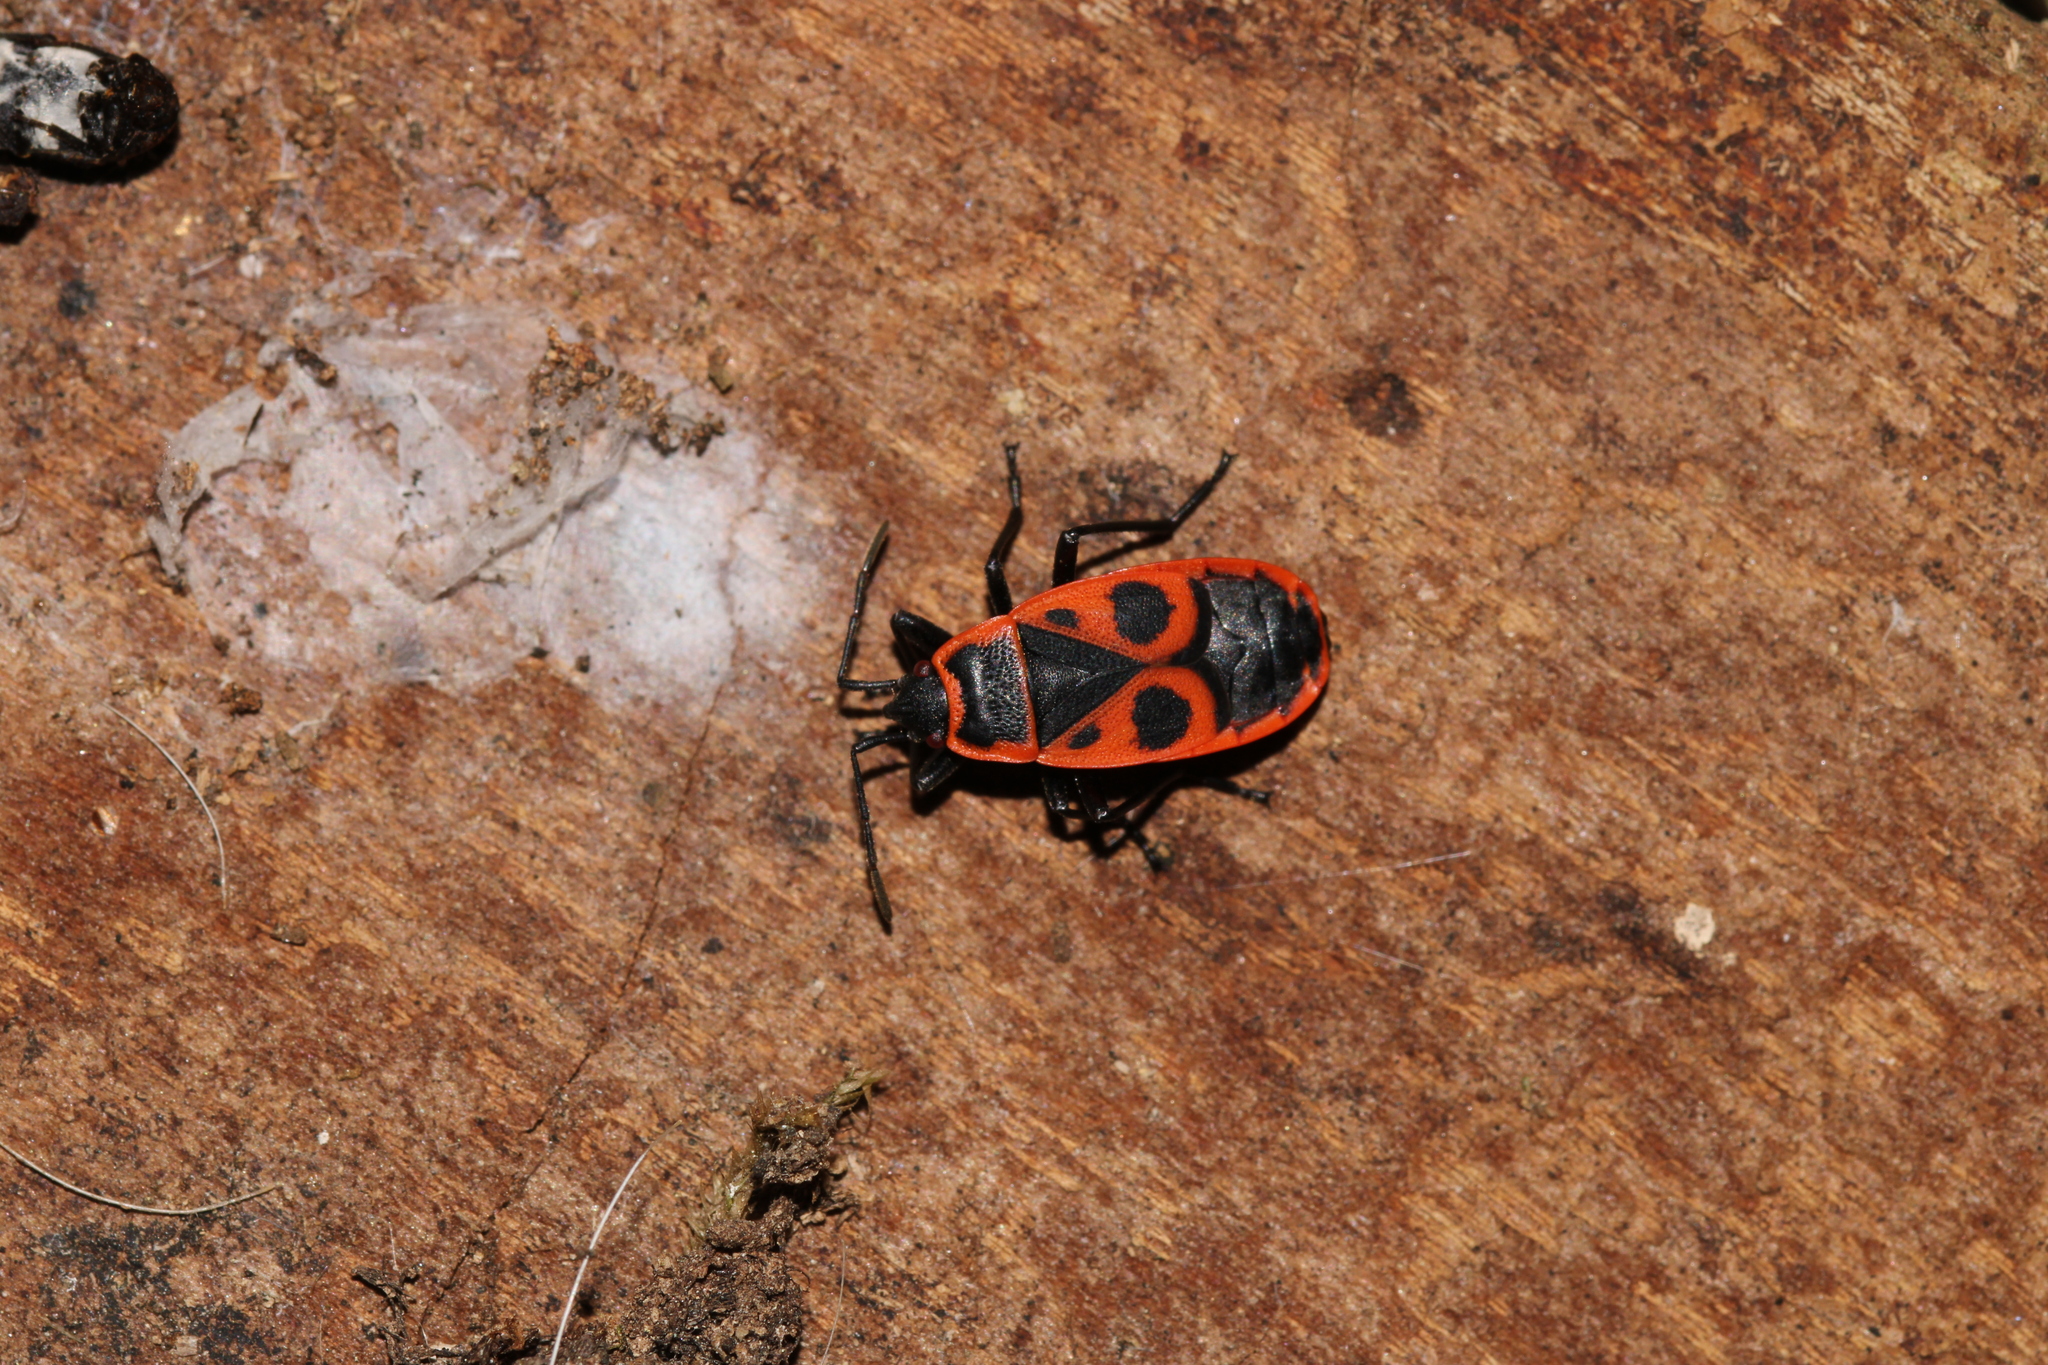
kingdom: Animalia
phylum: Arthropoda
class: Insecta
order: Hemiptera
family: Pyrrhocoridae
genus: Pyrrhocoris
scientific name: Pyrrhocoris apterus
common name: Firebug
